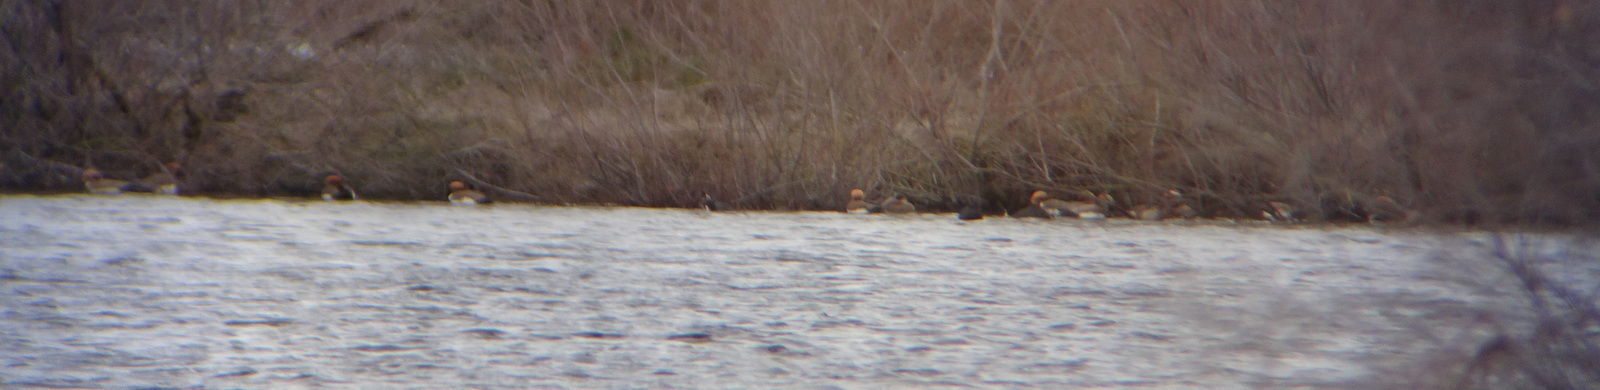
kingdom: Animalia
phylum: Chordata
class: Aves
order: Anseriformes
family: Anatidae
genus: Netta
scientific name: Netta rufina
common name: Red-crested pochard
